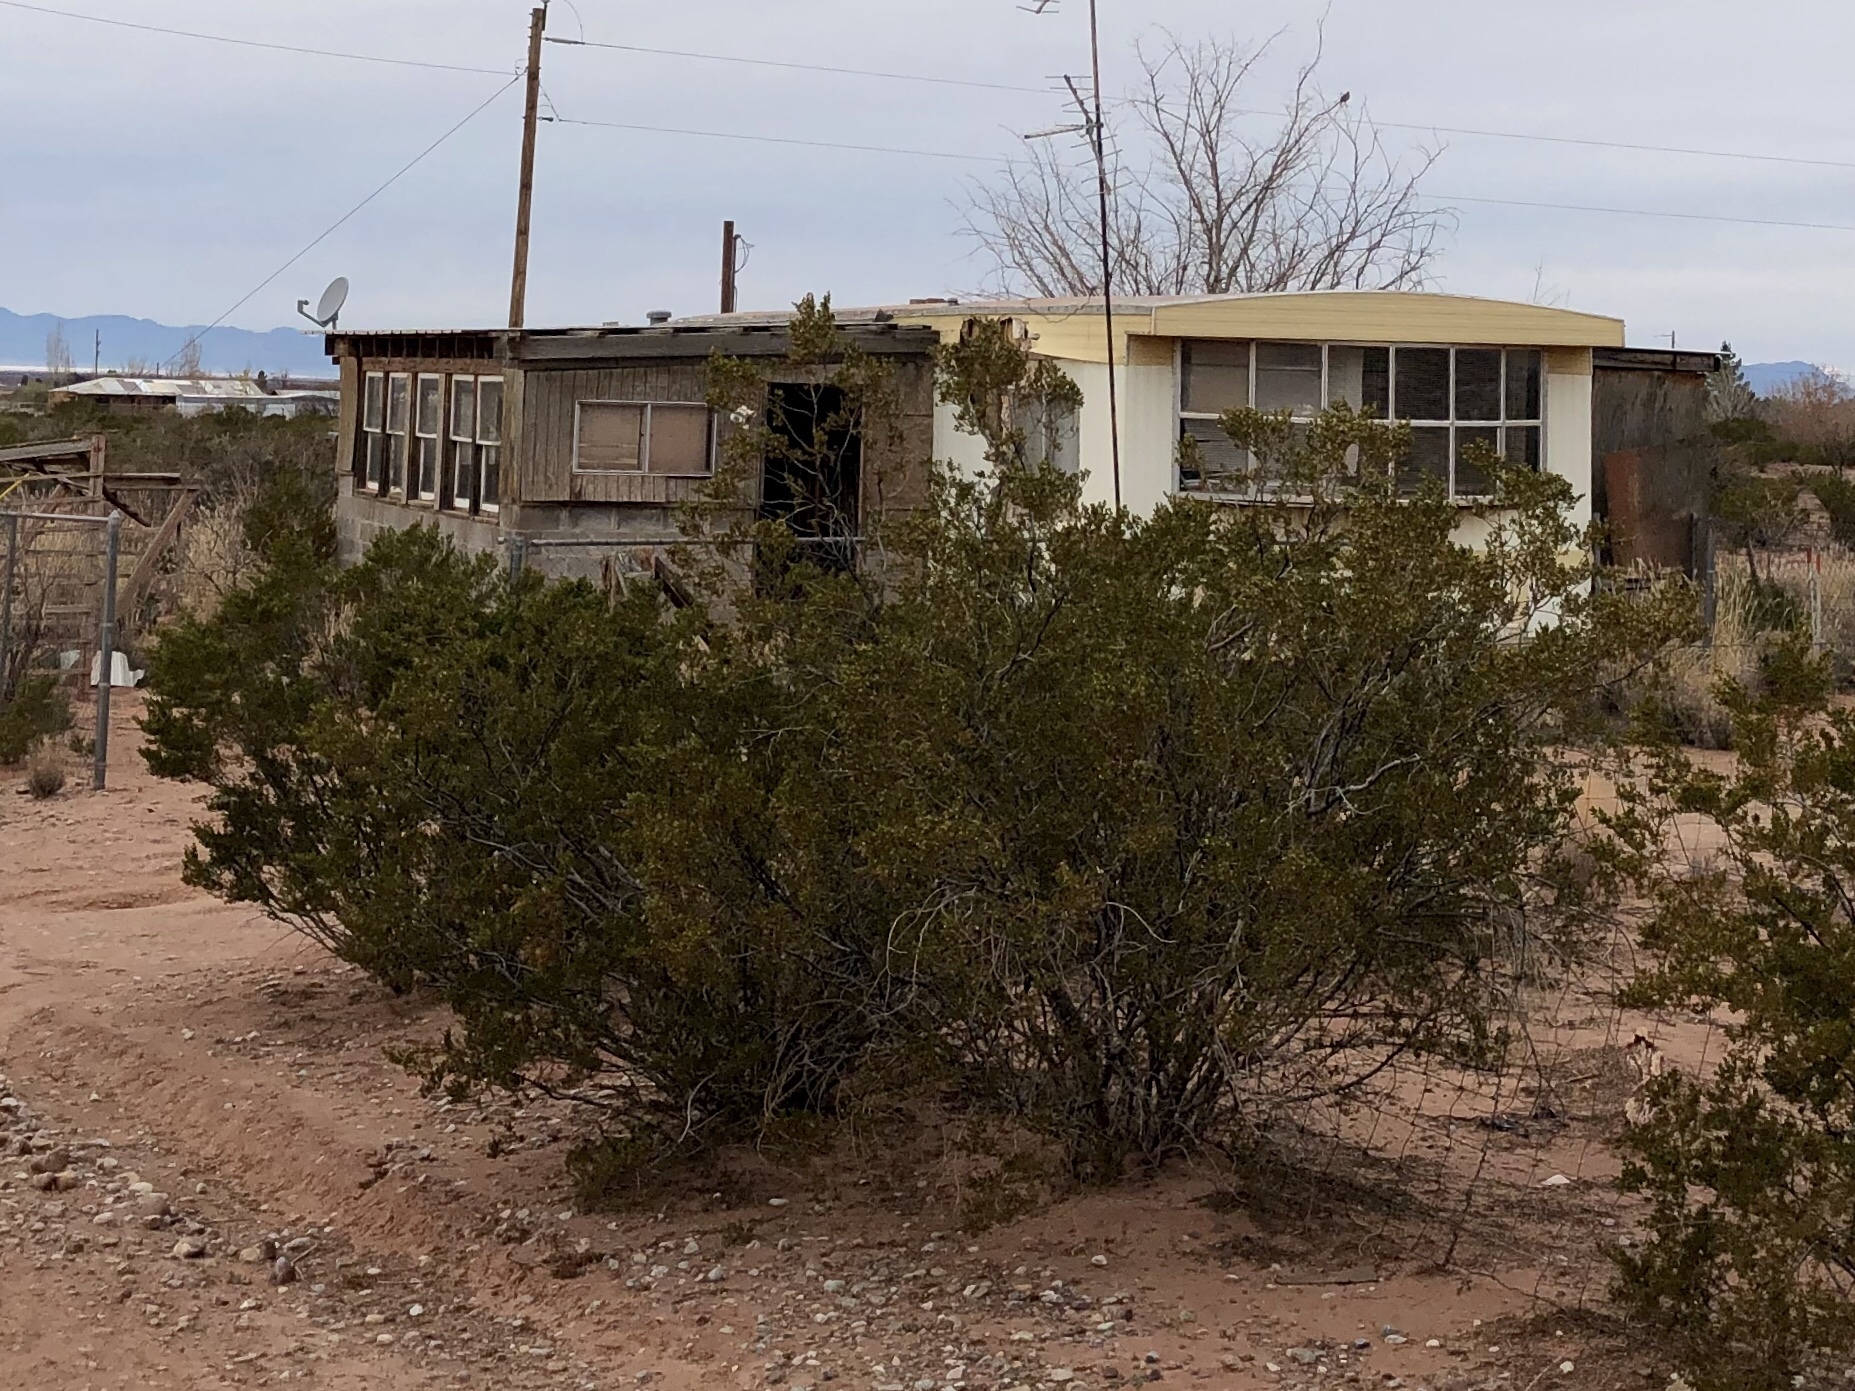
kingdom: Plantae
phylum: Tracheophyta
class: Magnoliopsida
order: Zygophyllales
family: Zygophyllaceae
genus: Larrea
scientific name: Larrea tridentata
